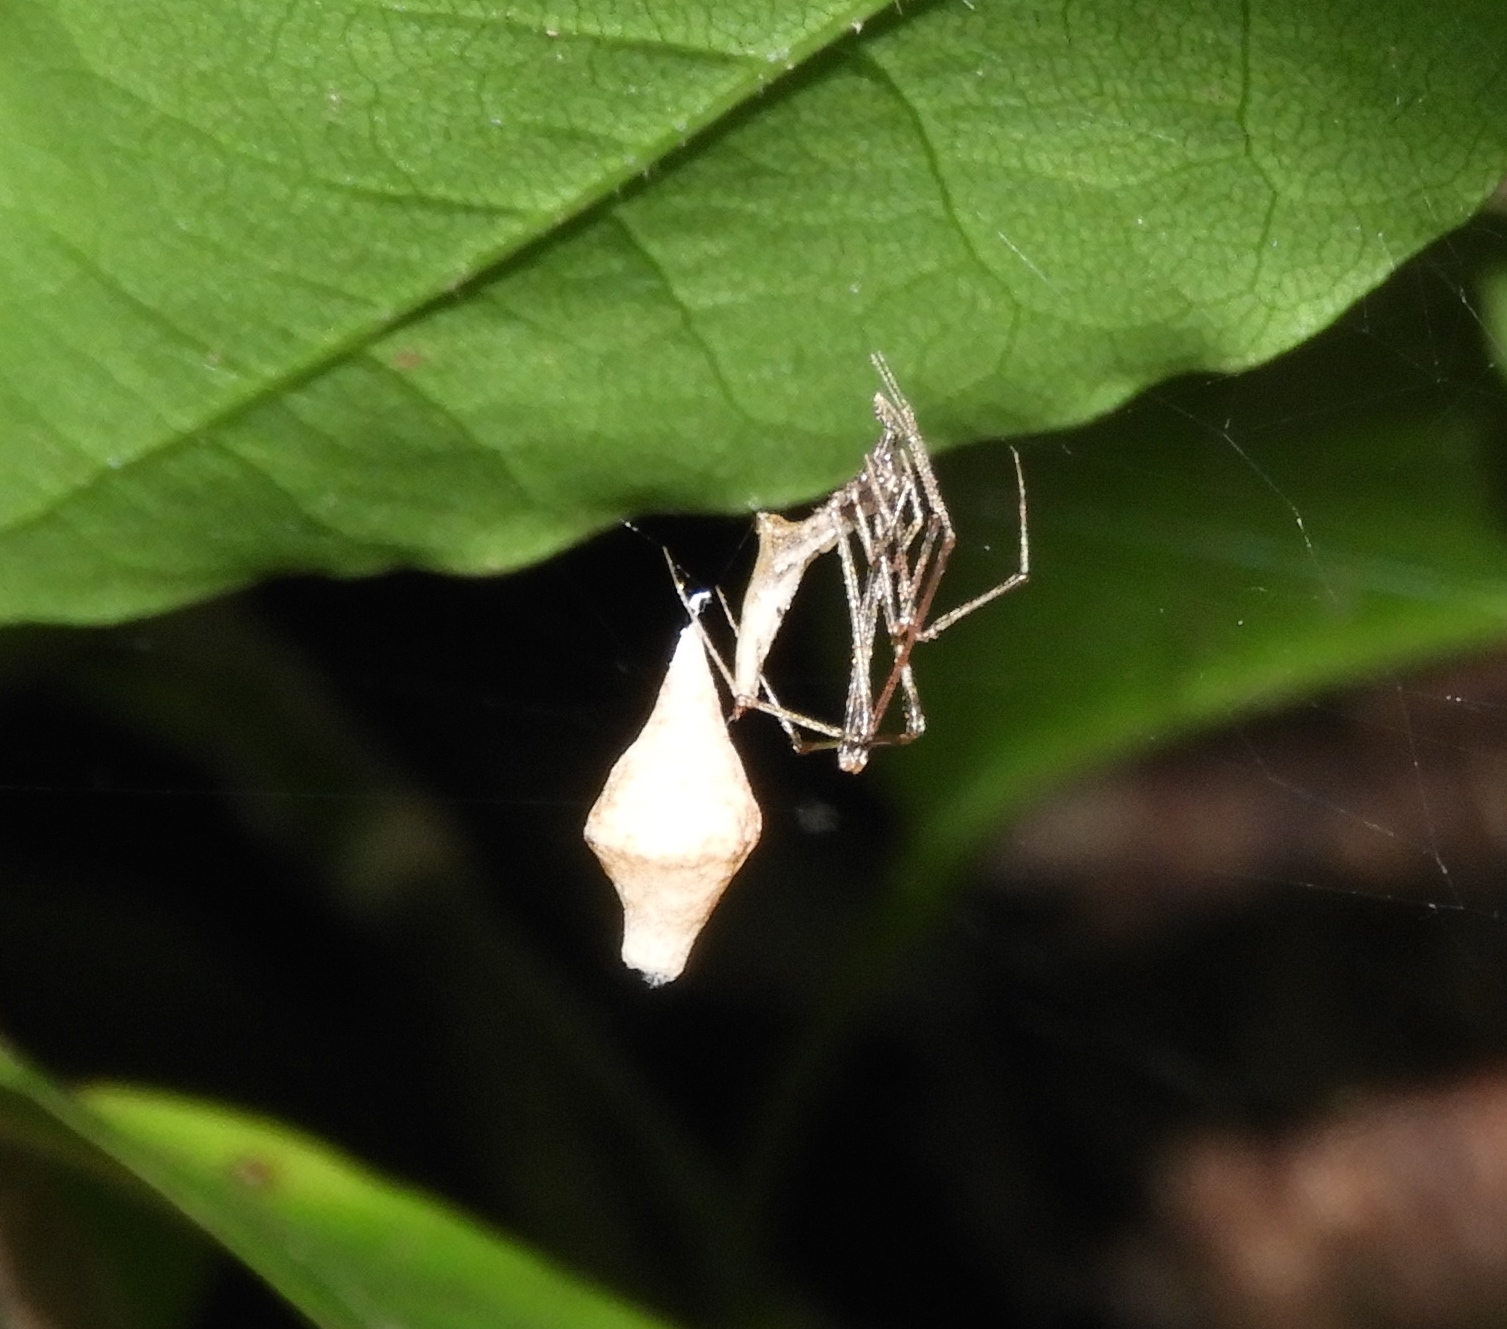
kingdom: Animalia
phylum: Arthropoda
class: Arachnida
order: Araneae
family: Theridiidae
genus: Rhomphaea
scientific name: Rhomphaea projiciens
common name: Cobweb spiders
